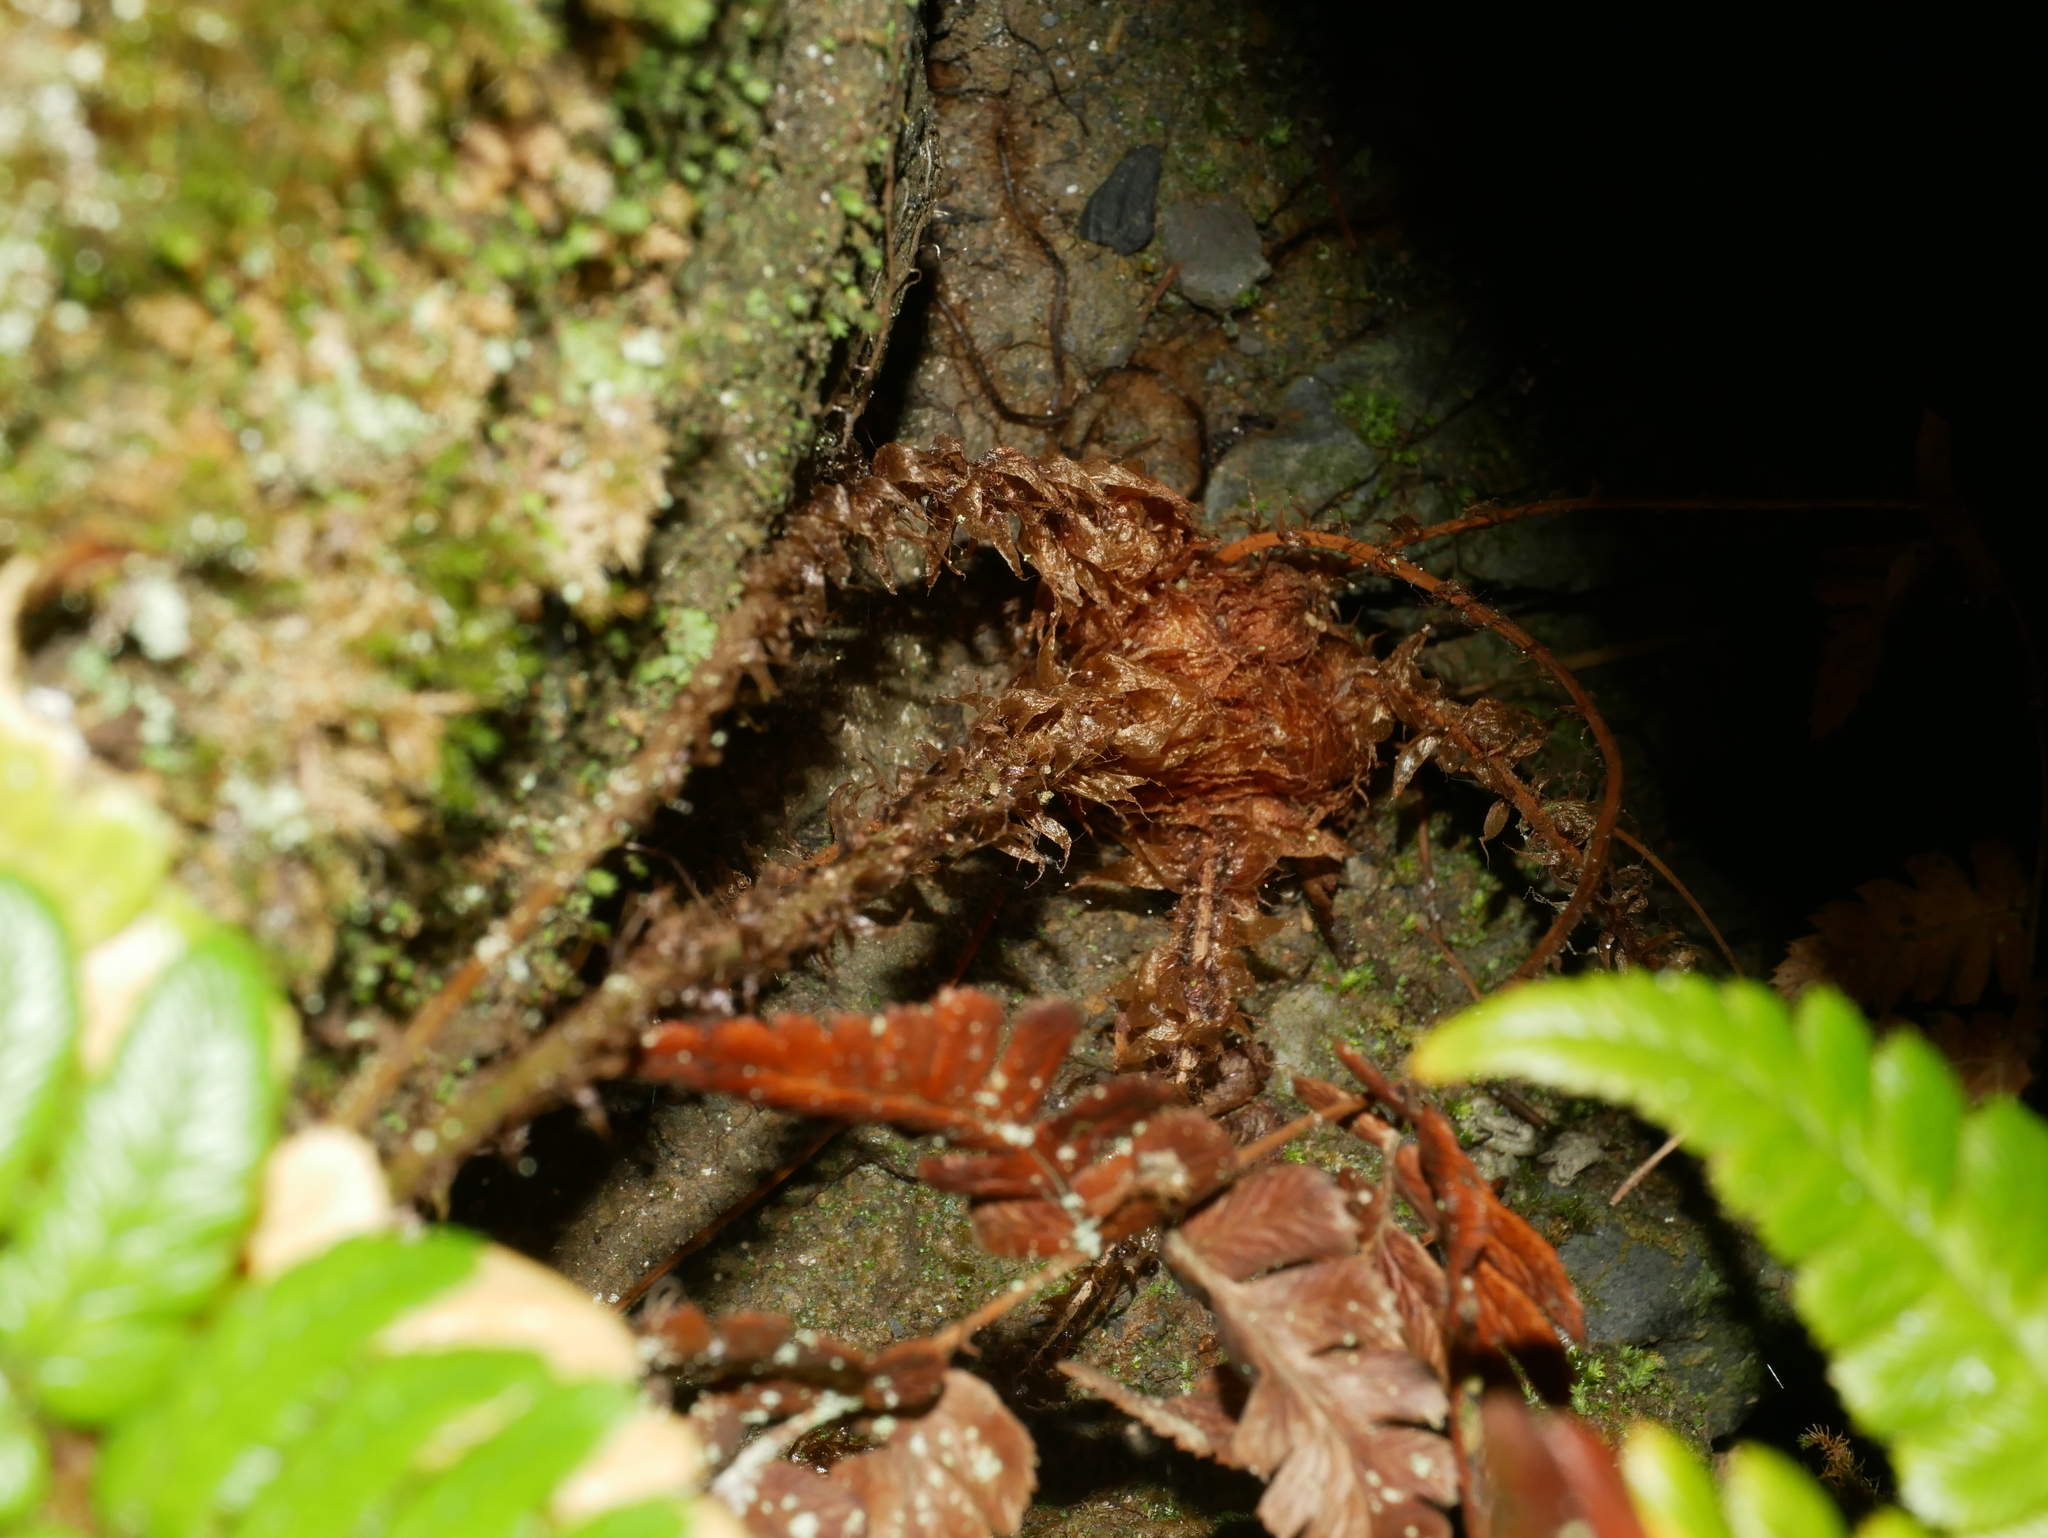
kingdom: Plantae
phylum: Tracheophyta
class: Polypodiopsida
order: Polypodiales
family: Dryopteridaceae
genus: Dryopteris
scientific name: Dryopteris fructuosa
